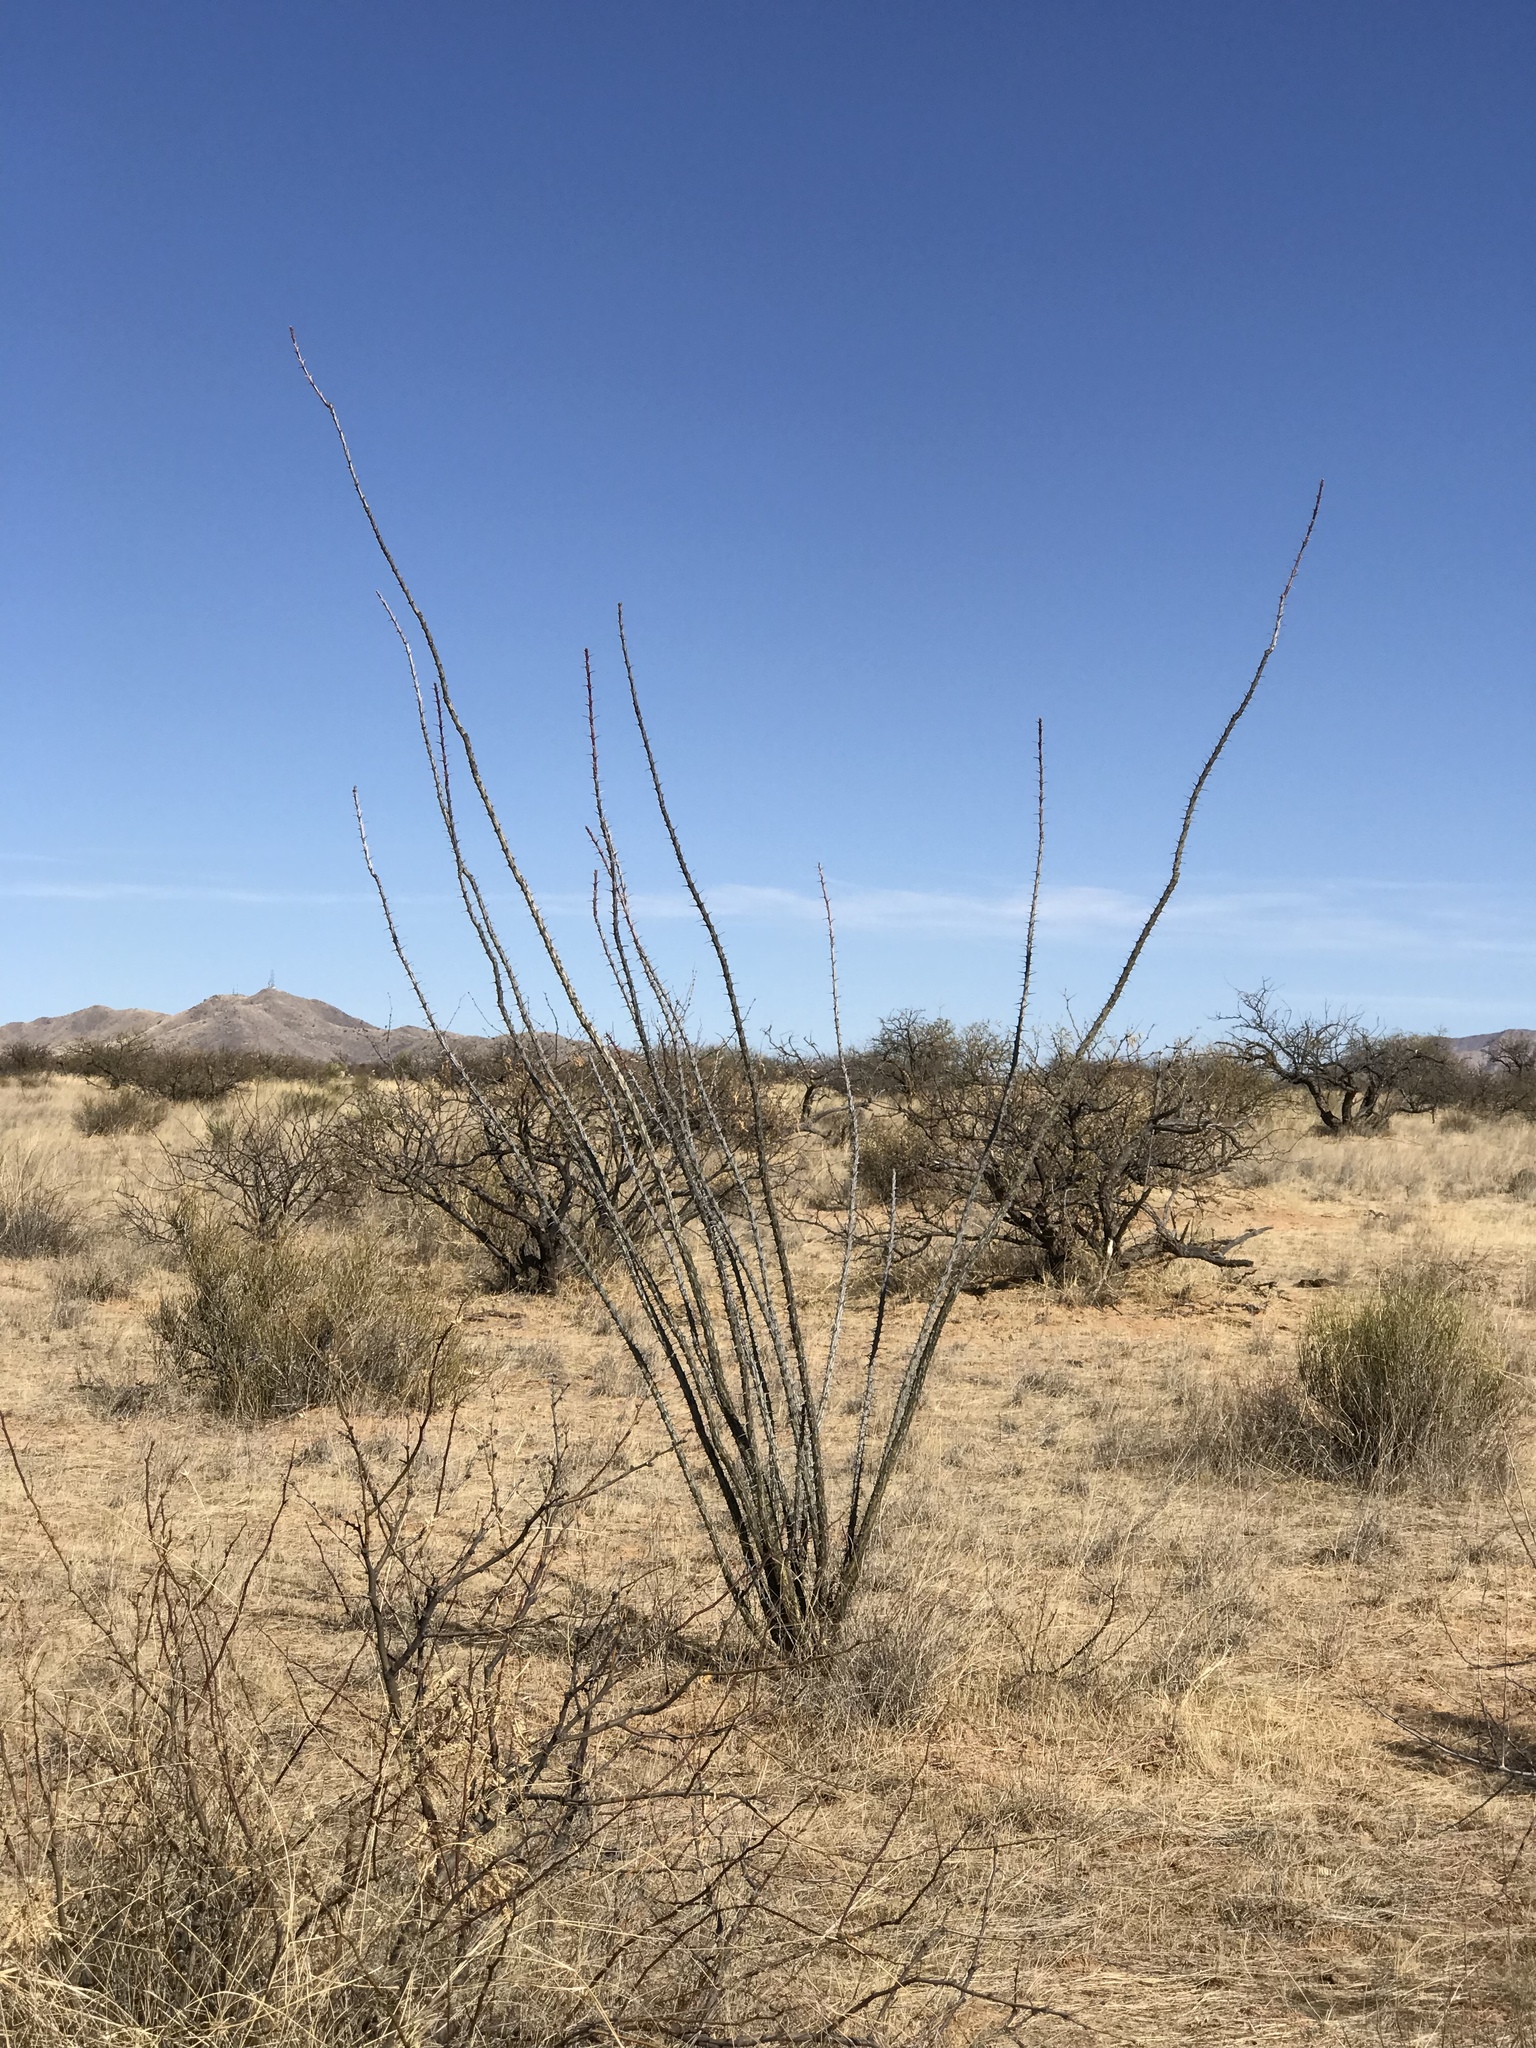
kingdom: Plantae
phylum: Tracheophyta
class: Magnoliopsida
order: Ericales
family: Fouquieriaceae
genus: Fouquieria
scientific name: Fouquieria splendens
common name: Vine-cactus
